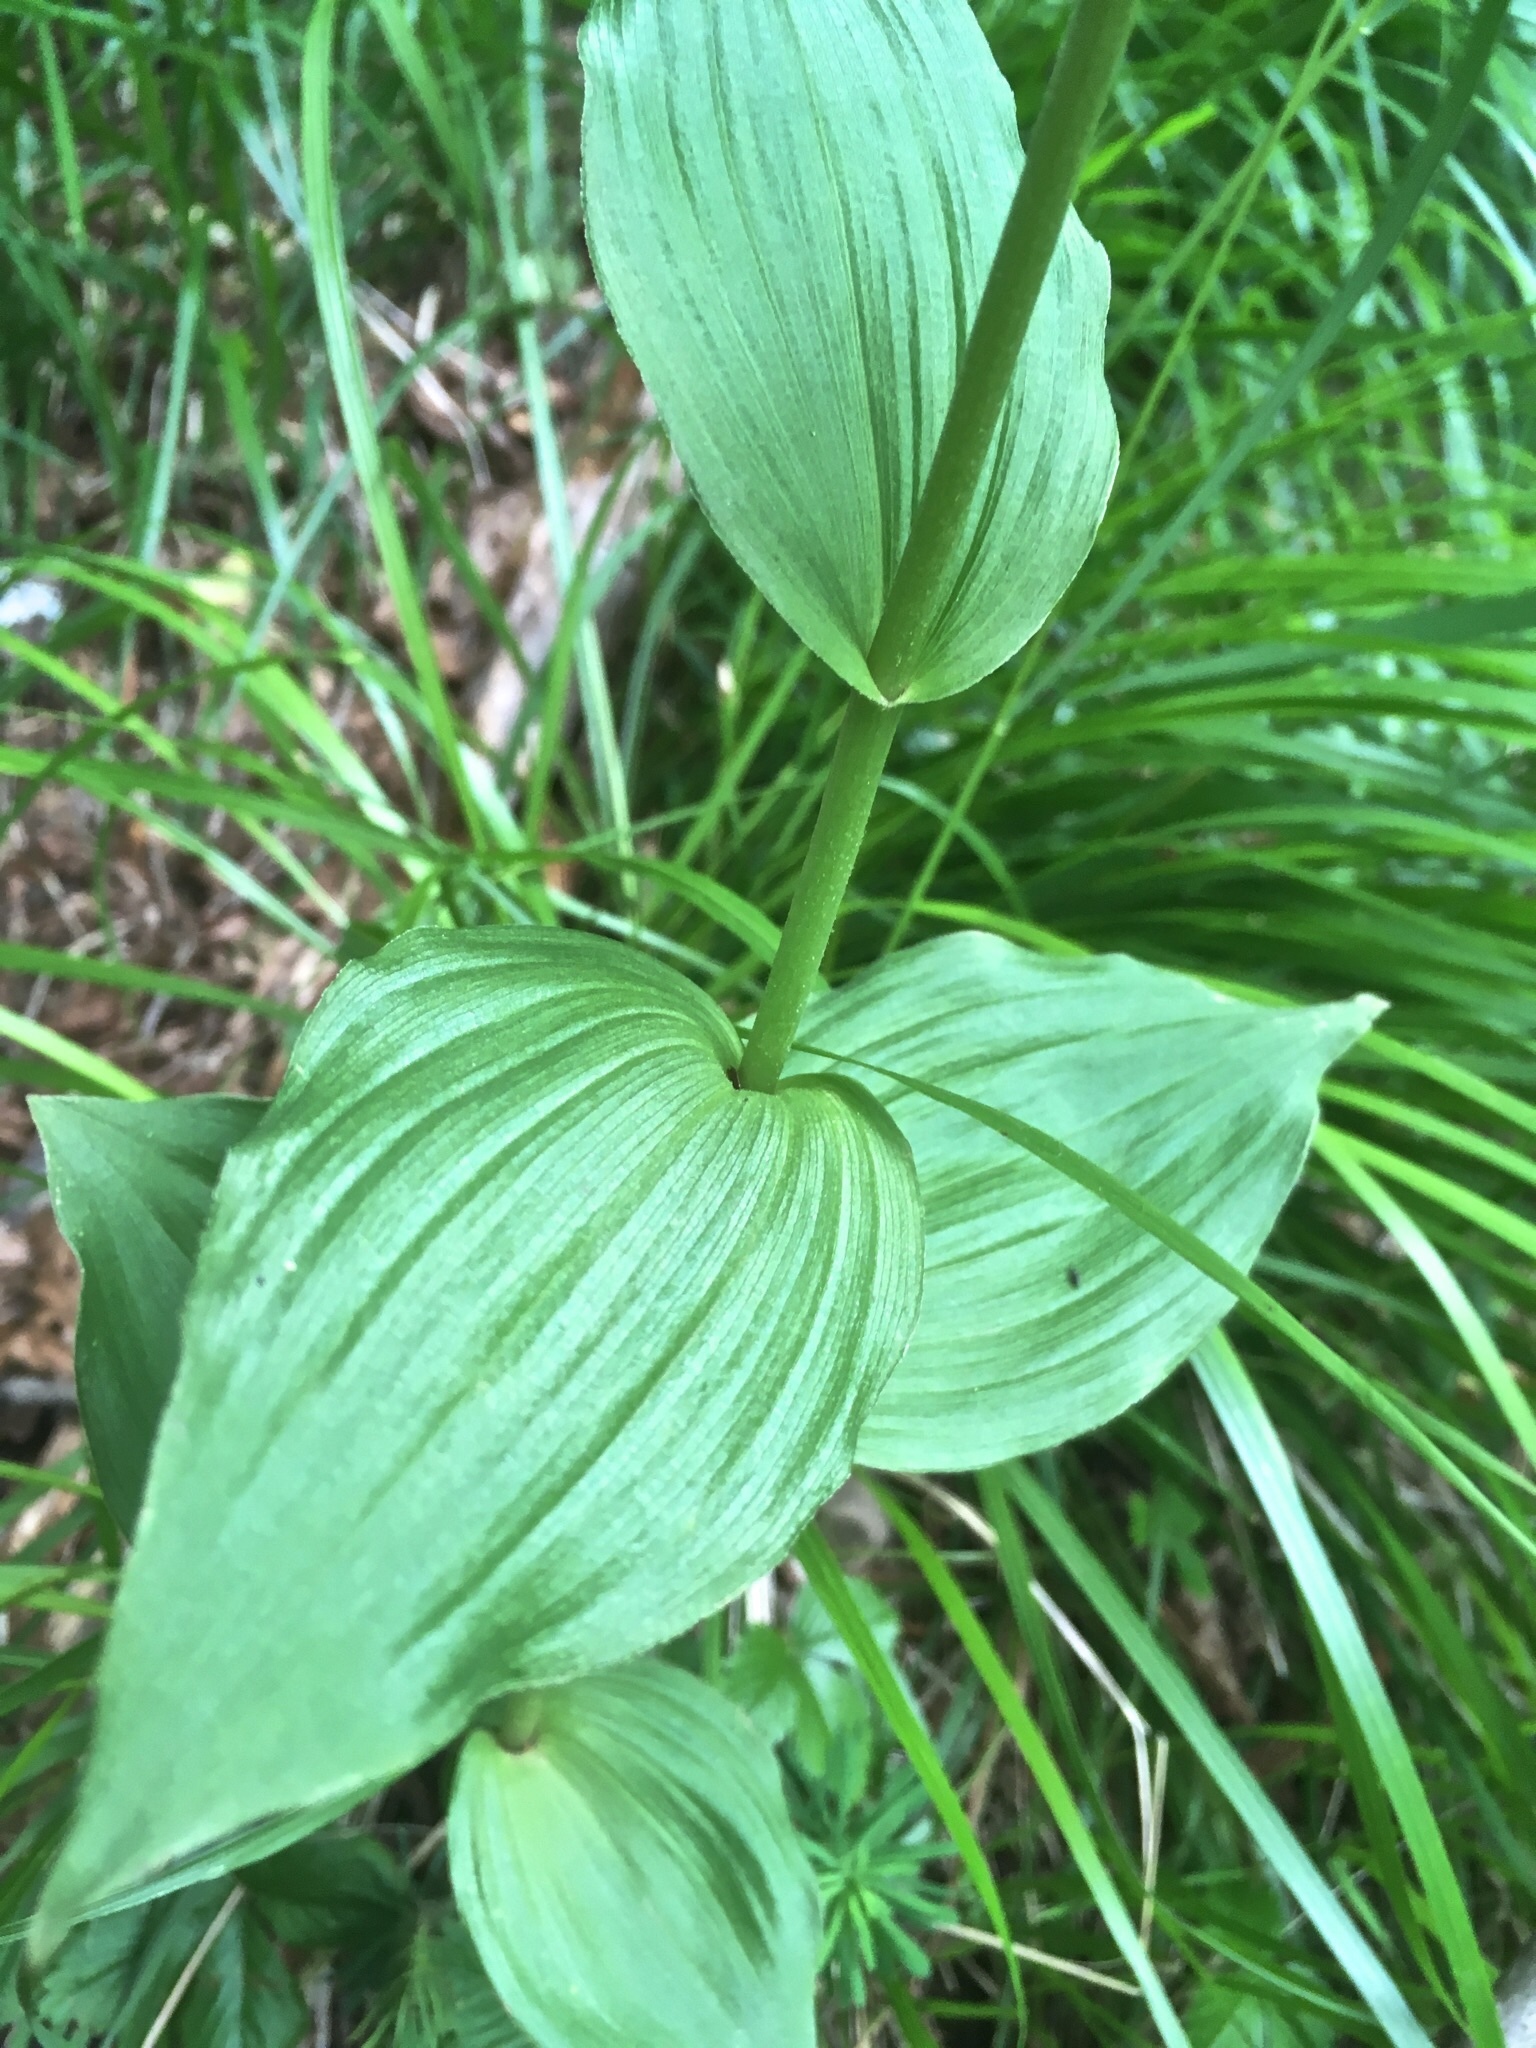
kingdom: Plantae
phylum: Tracheophyta
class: Liliopsida
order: Asparagales
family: Orchidaceae
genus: Epipactis
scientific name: Epipactis helleborine
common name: Broad-leaved helleborine
